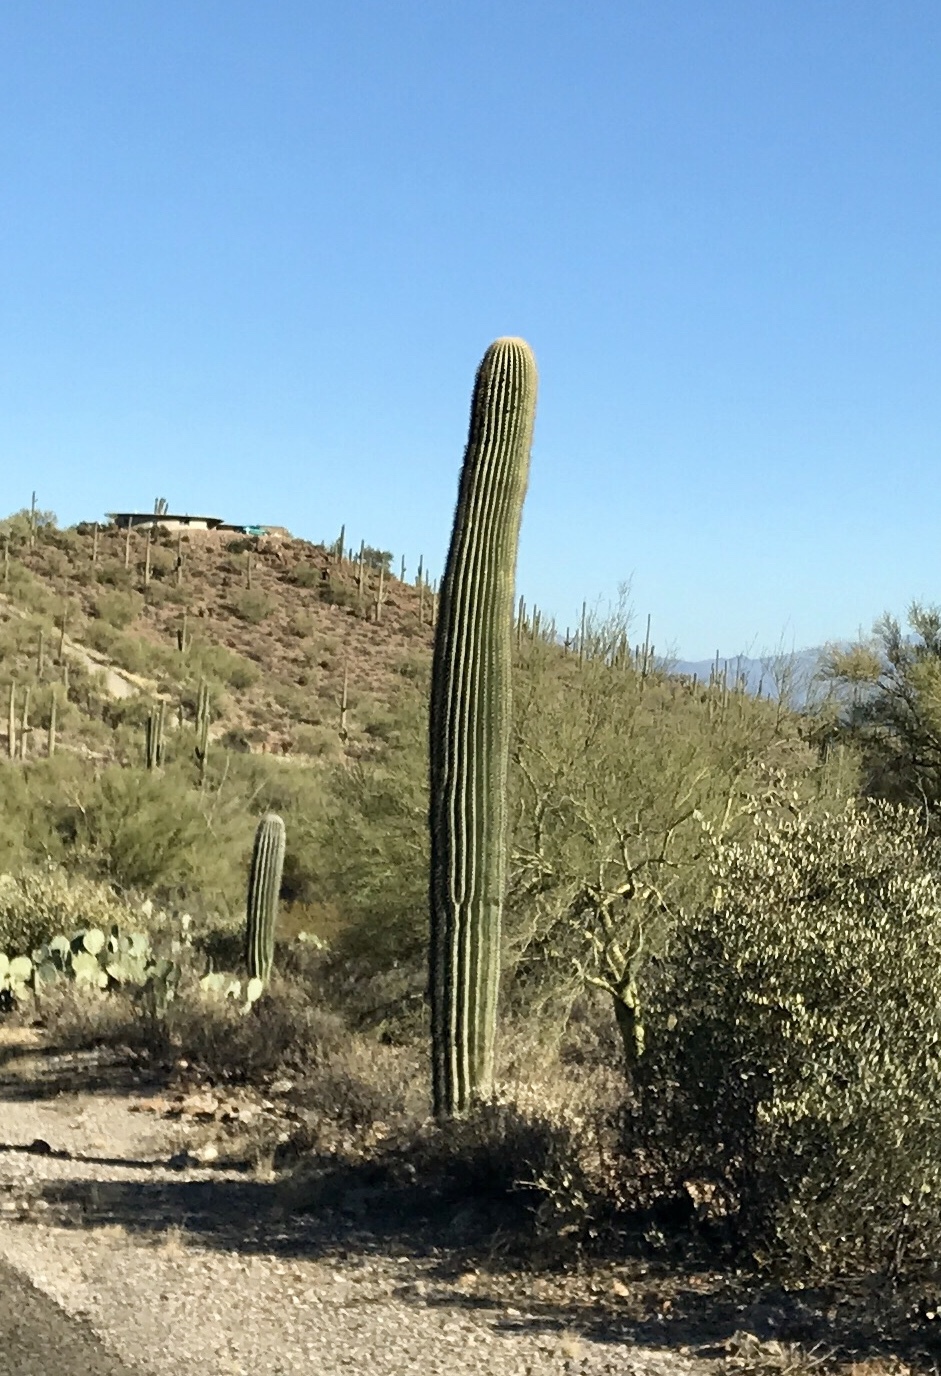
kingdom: Plantae
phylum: Tracheophyta
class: Magnoliopsida
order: Caryophyllales
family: Cactaceae
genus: Carnegiea
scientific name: Carnegiea gigantea
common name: Saguaro
